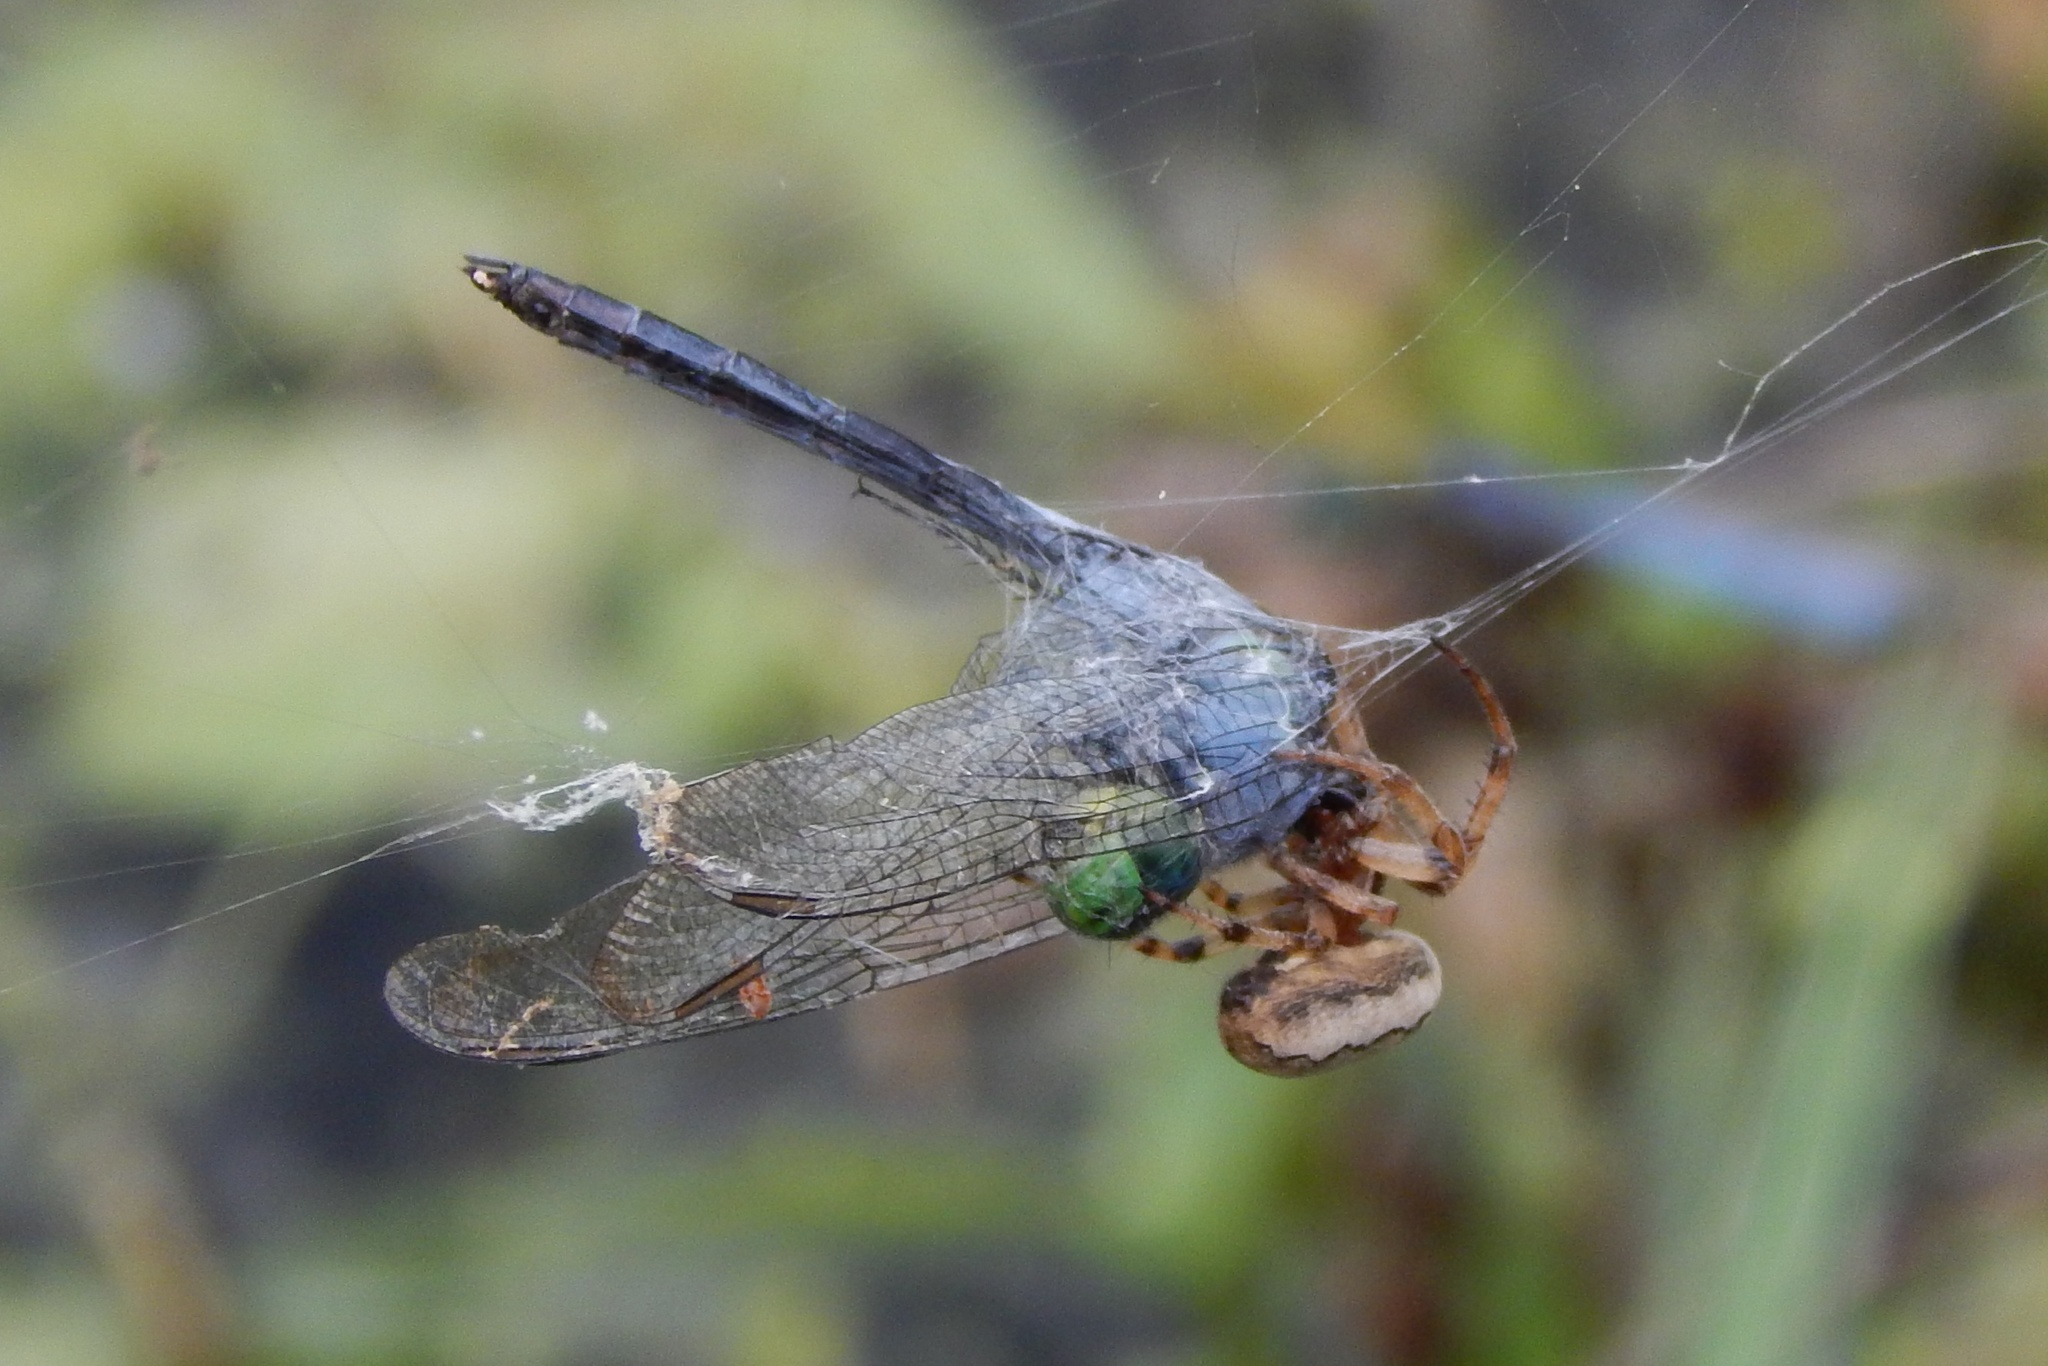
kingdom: Animalia
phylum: Arthropoda
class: Insecta
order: Odonata
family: Libellulidae
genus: Erythemis
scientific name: Erythemis simplicicollis
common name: Eastern pondhawk
